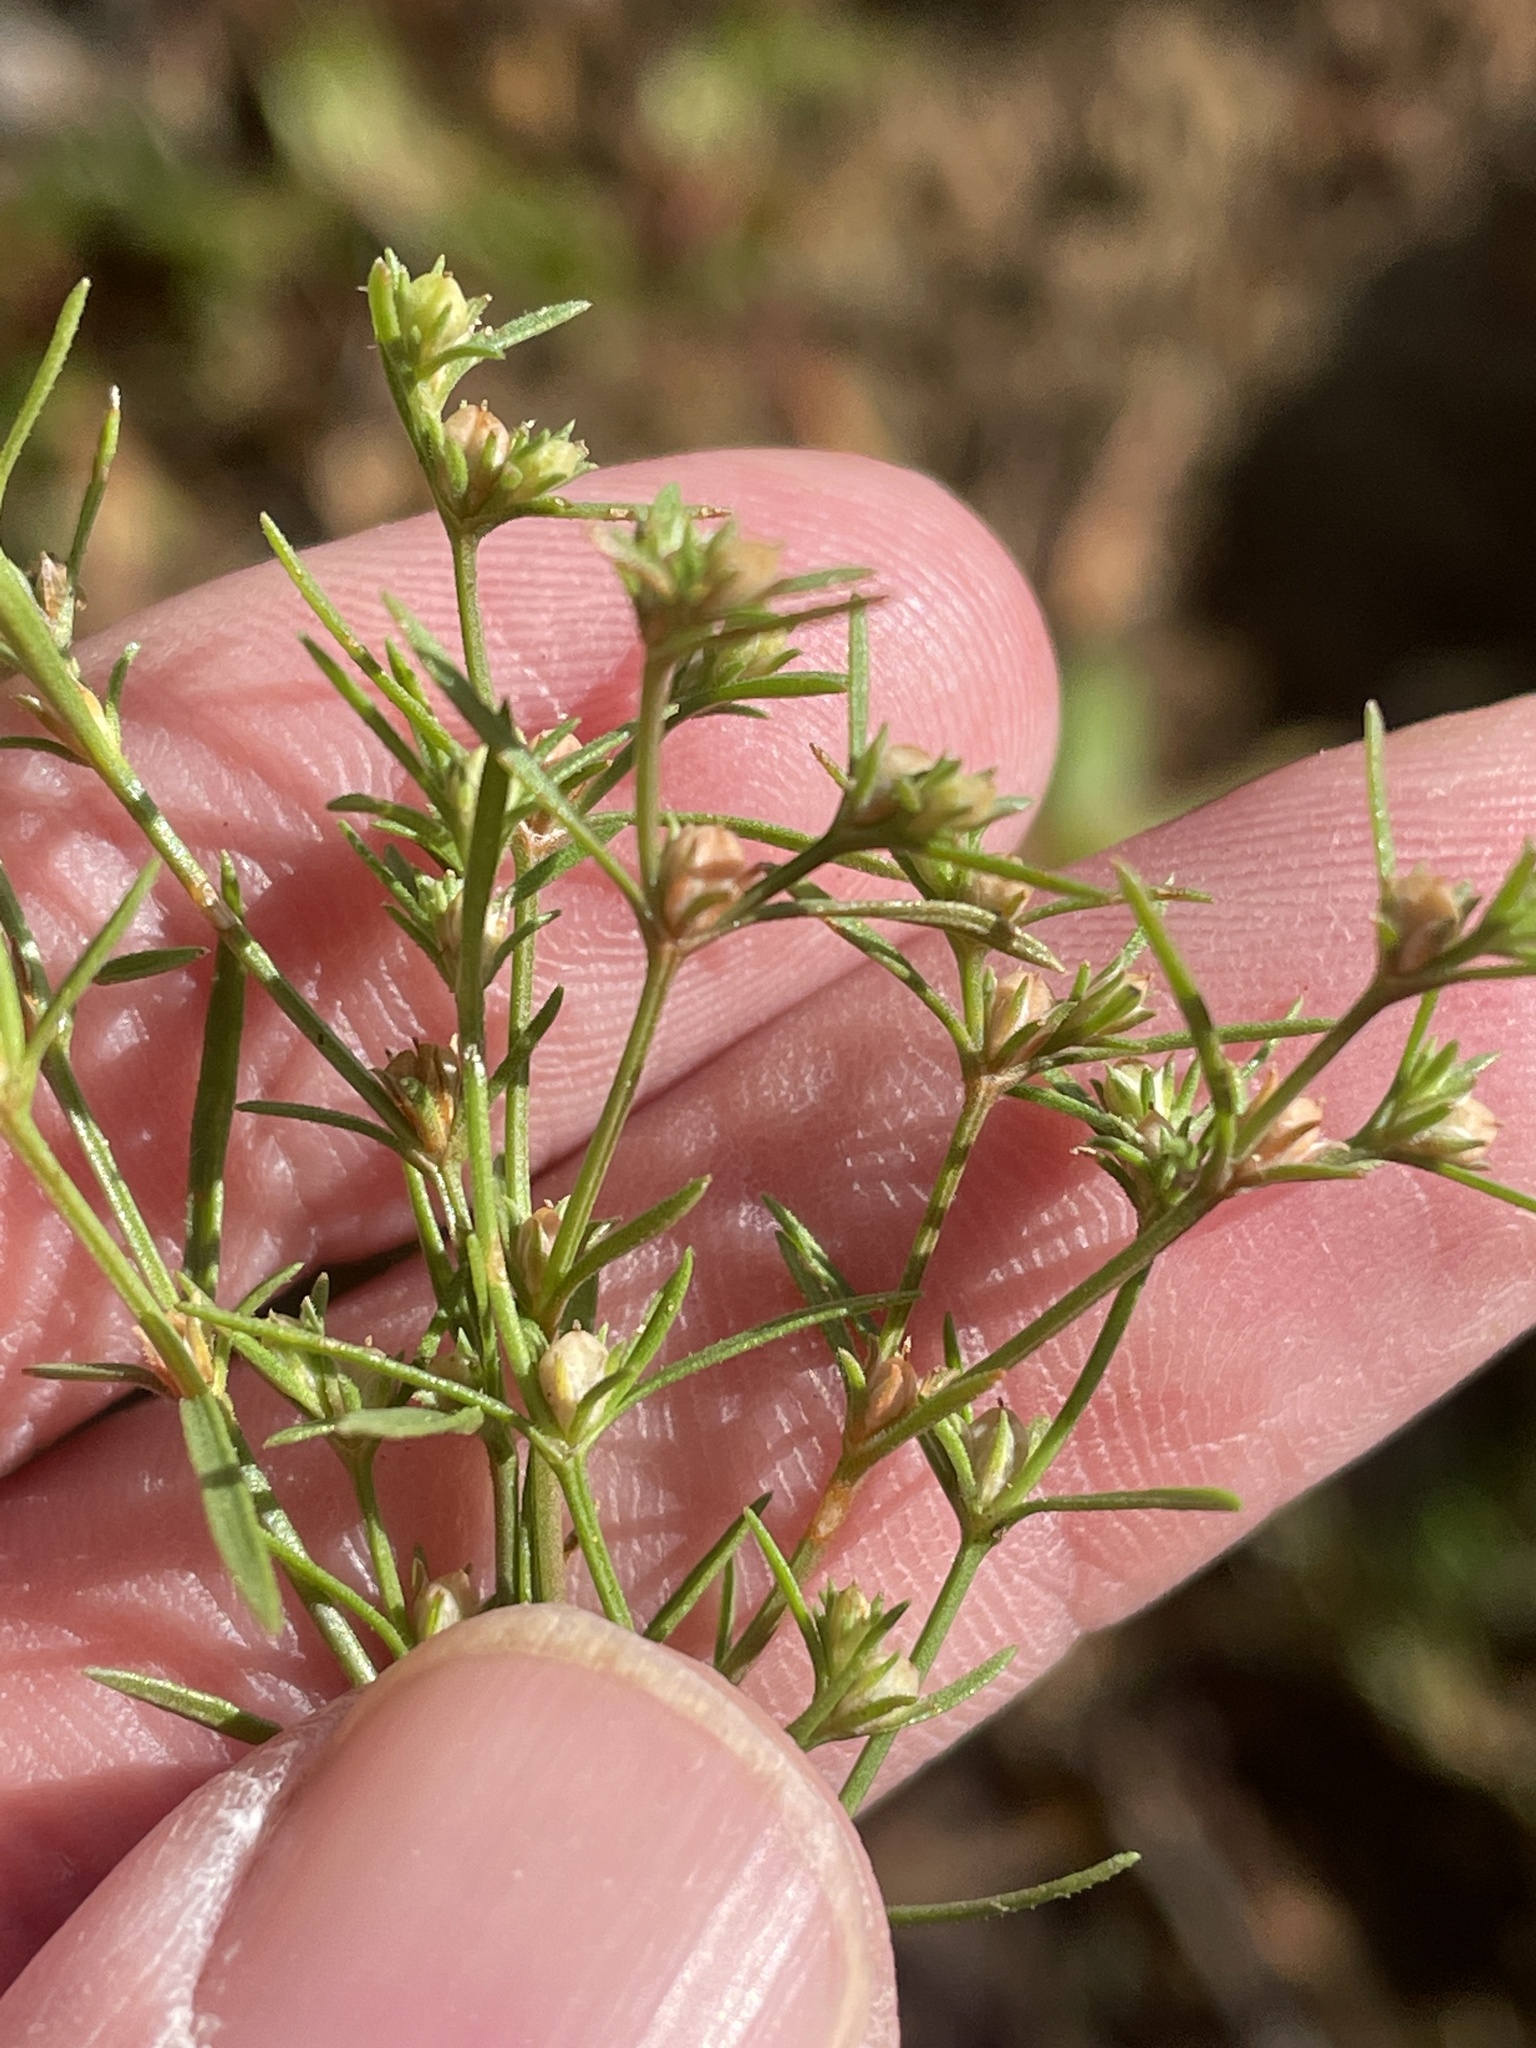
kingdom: Plantae
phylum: Tracheophyta
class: Magnoliopsida
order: Lamiales
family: Tetrachondraceae
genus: Polypremum
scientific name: Polypremum procumbens
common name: Juniper-leaf
